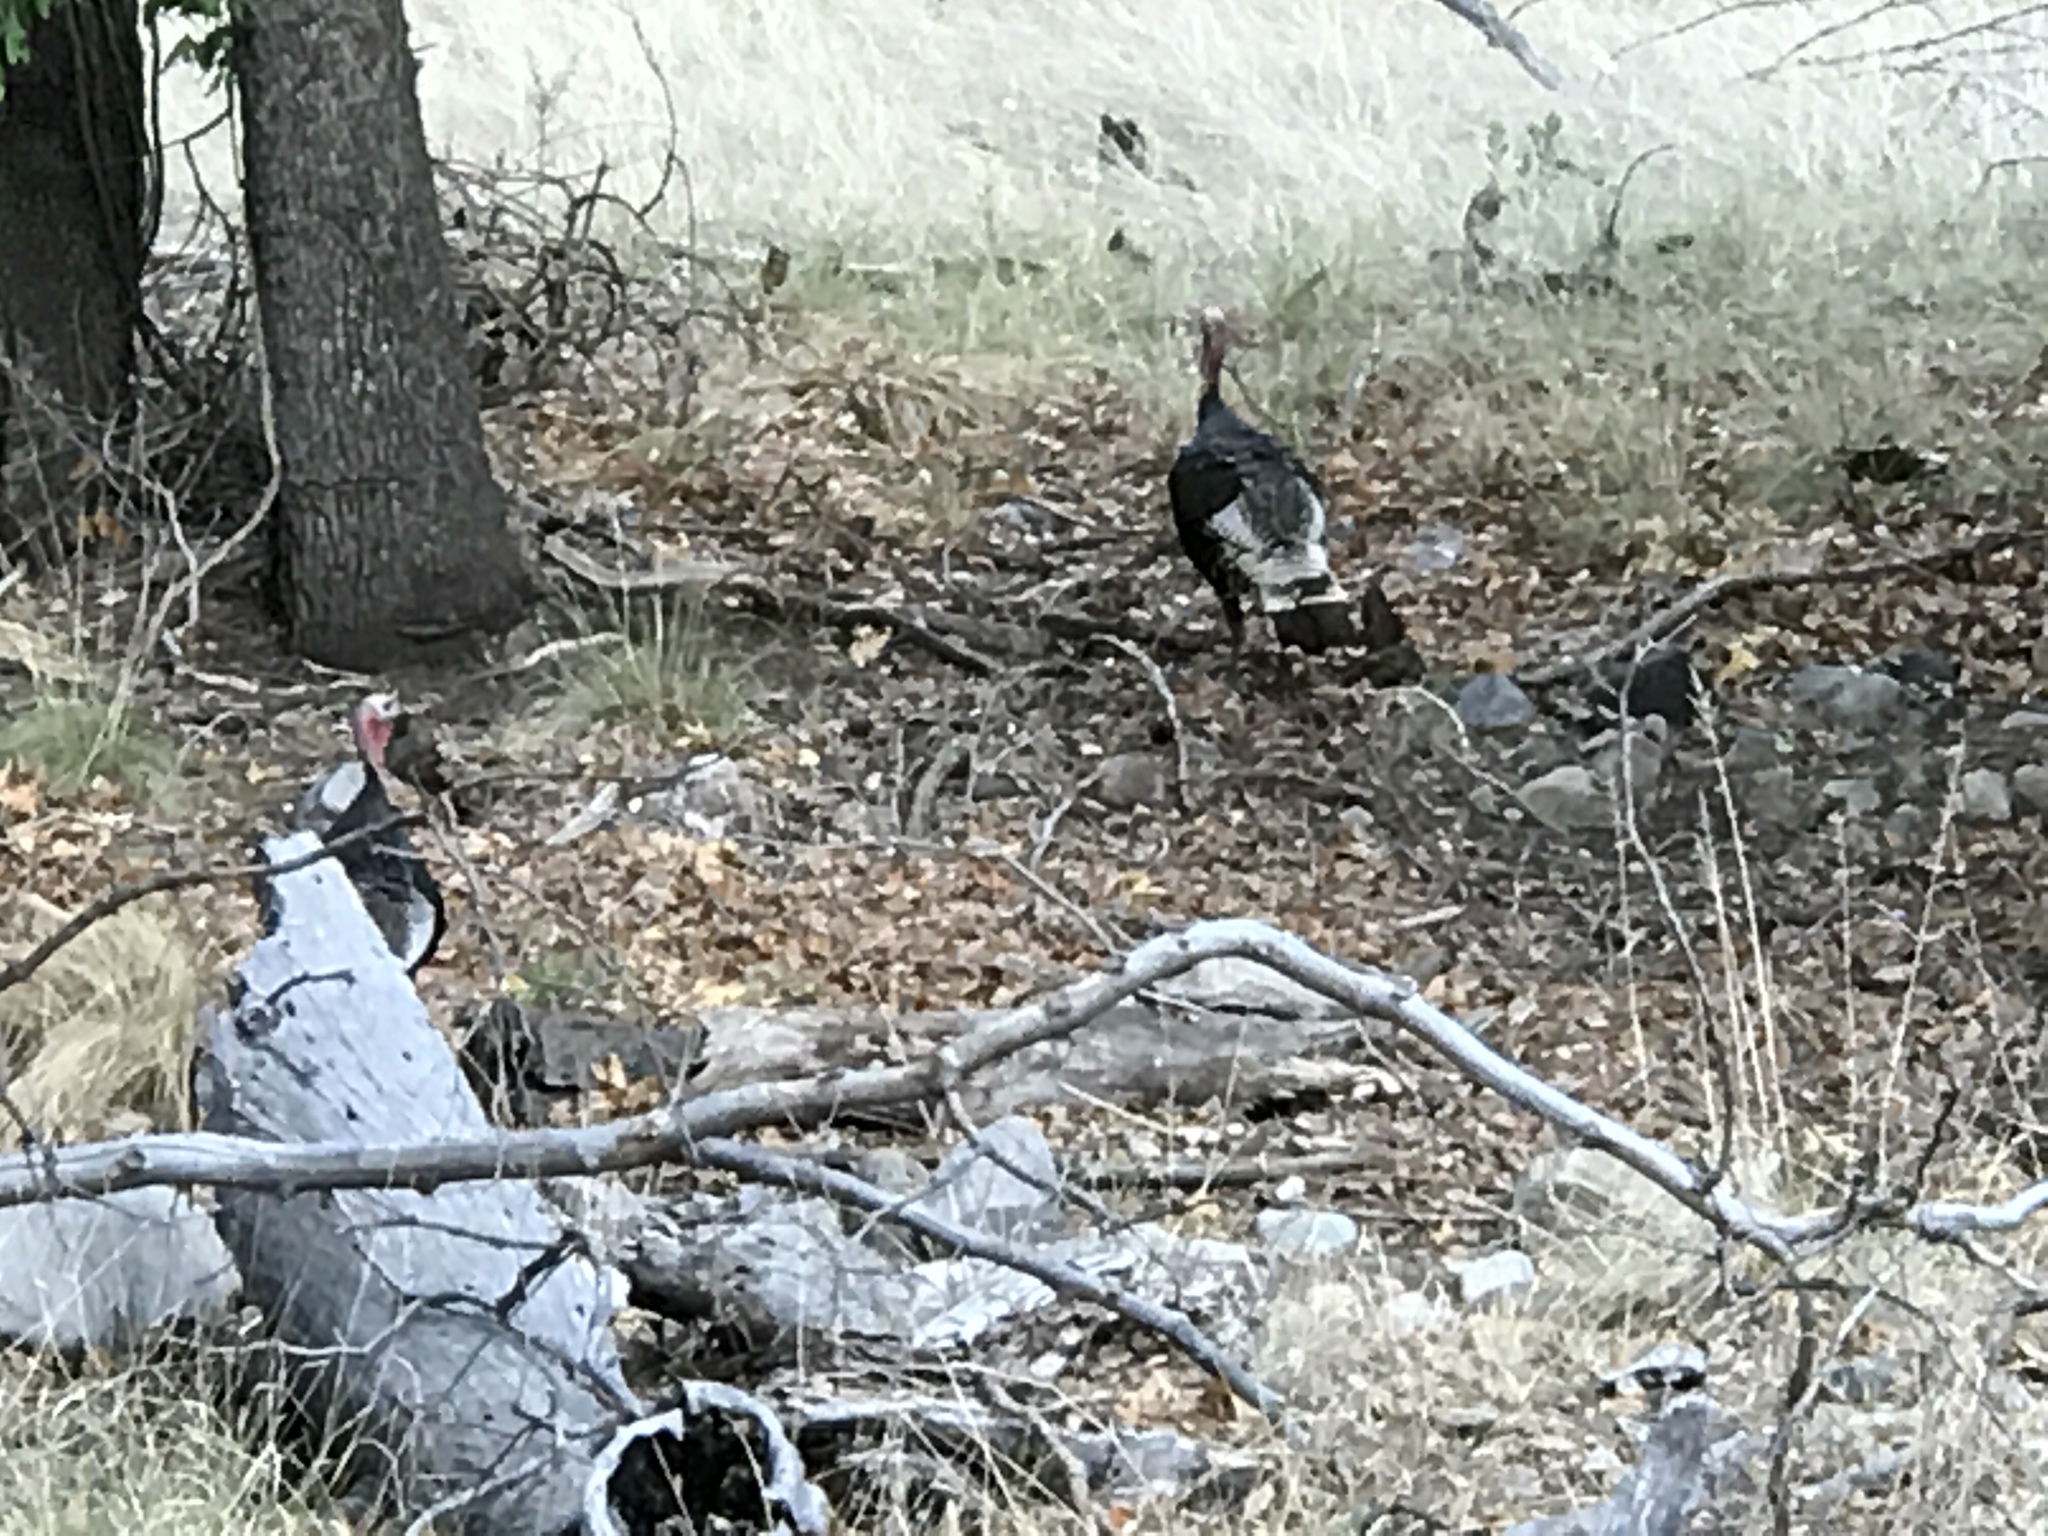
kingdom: Animalia
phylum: Chordata
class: Aves
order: Galliformes
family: Phasianidae
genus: Meleagris
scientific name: Meleagris gallopavo
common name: Wild turkey
